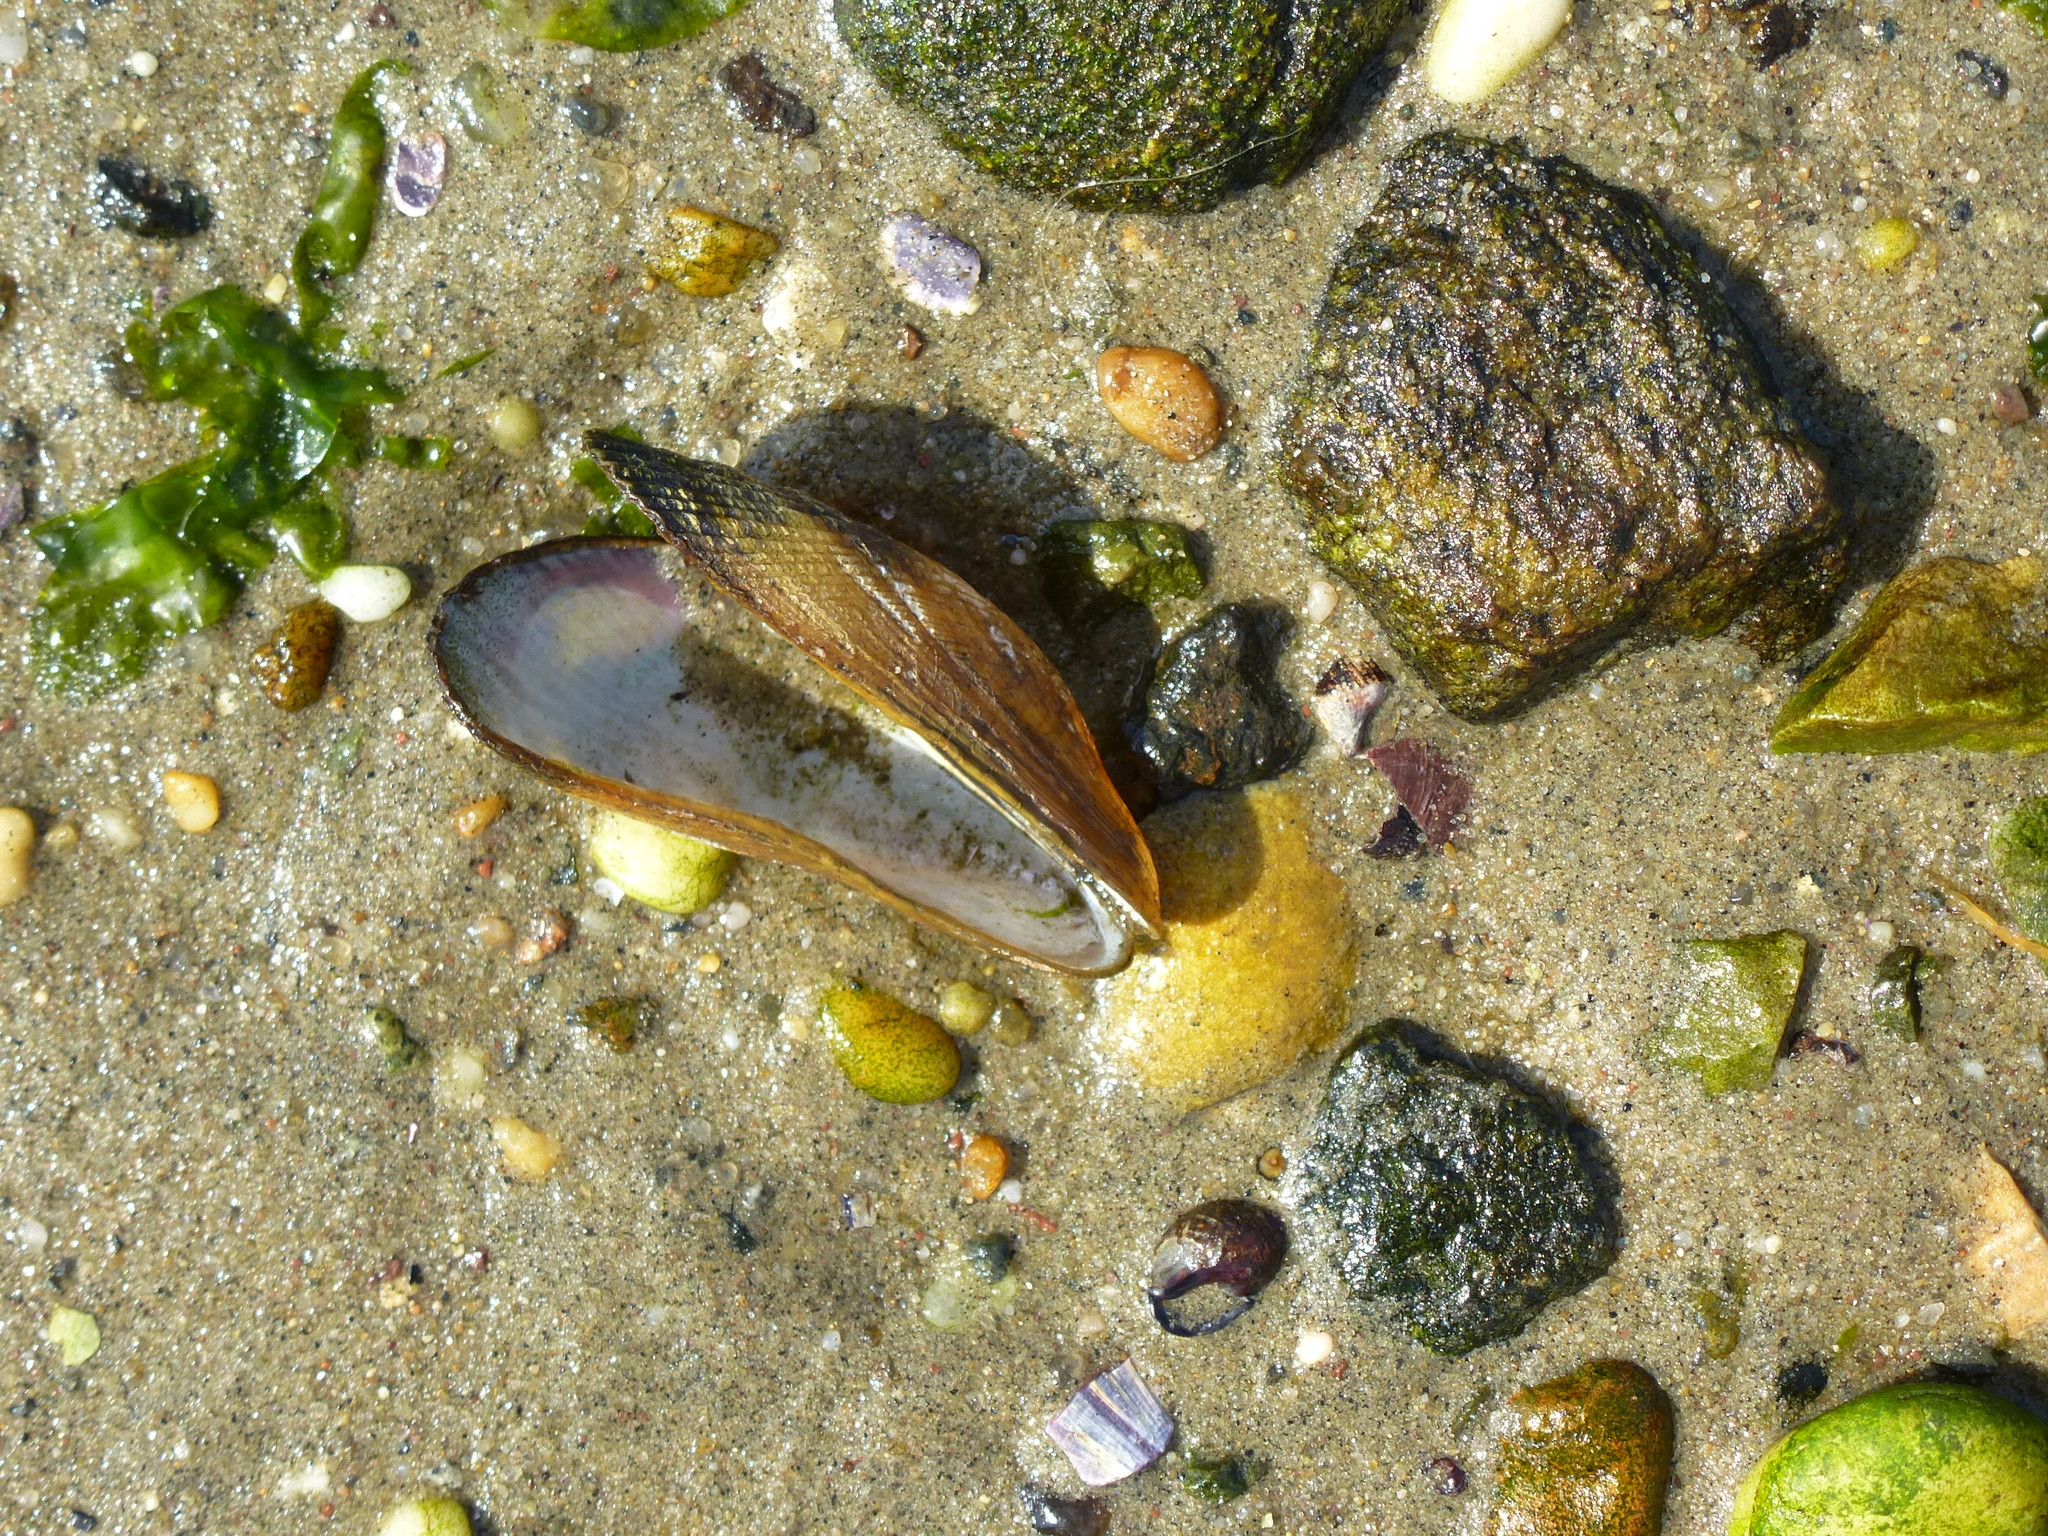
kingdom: Animalia
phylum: Mollusca
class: Bivalvia
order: Mytilida
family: Mytilidae
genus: Geukensia
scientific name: Geukensia demissa
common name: Ribbed mussel
